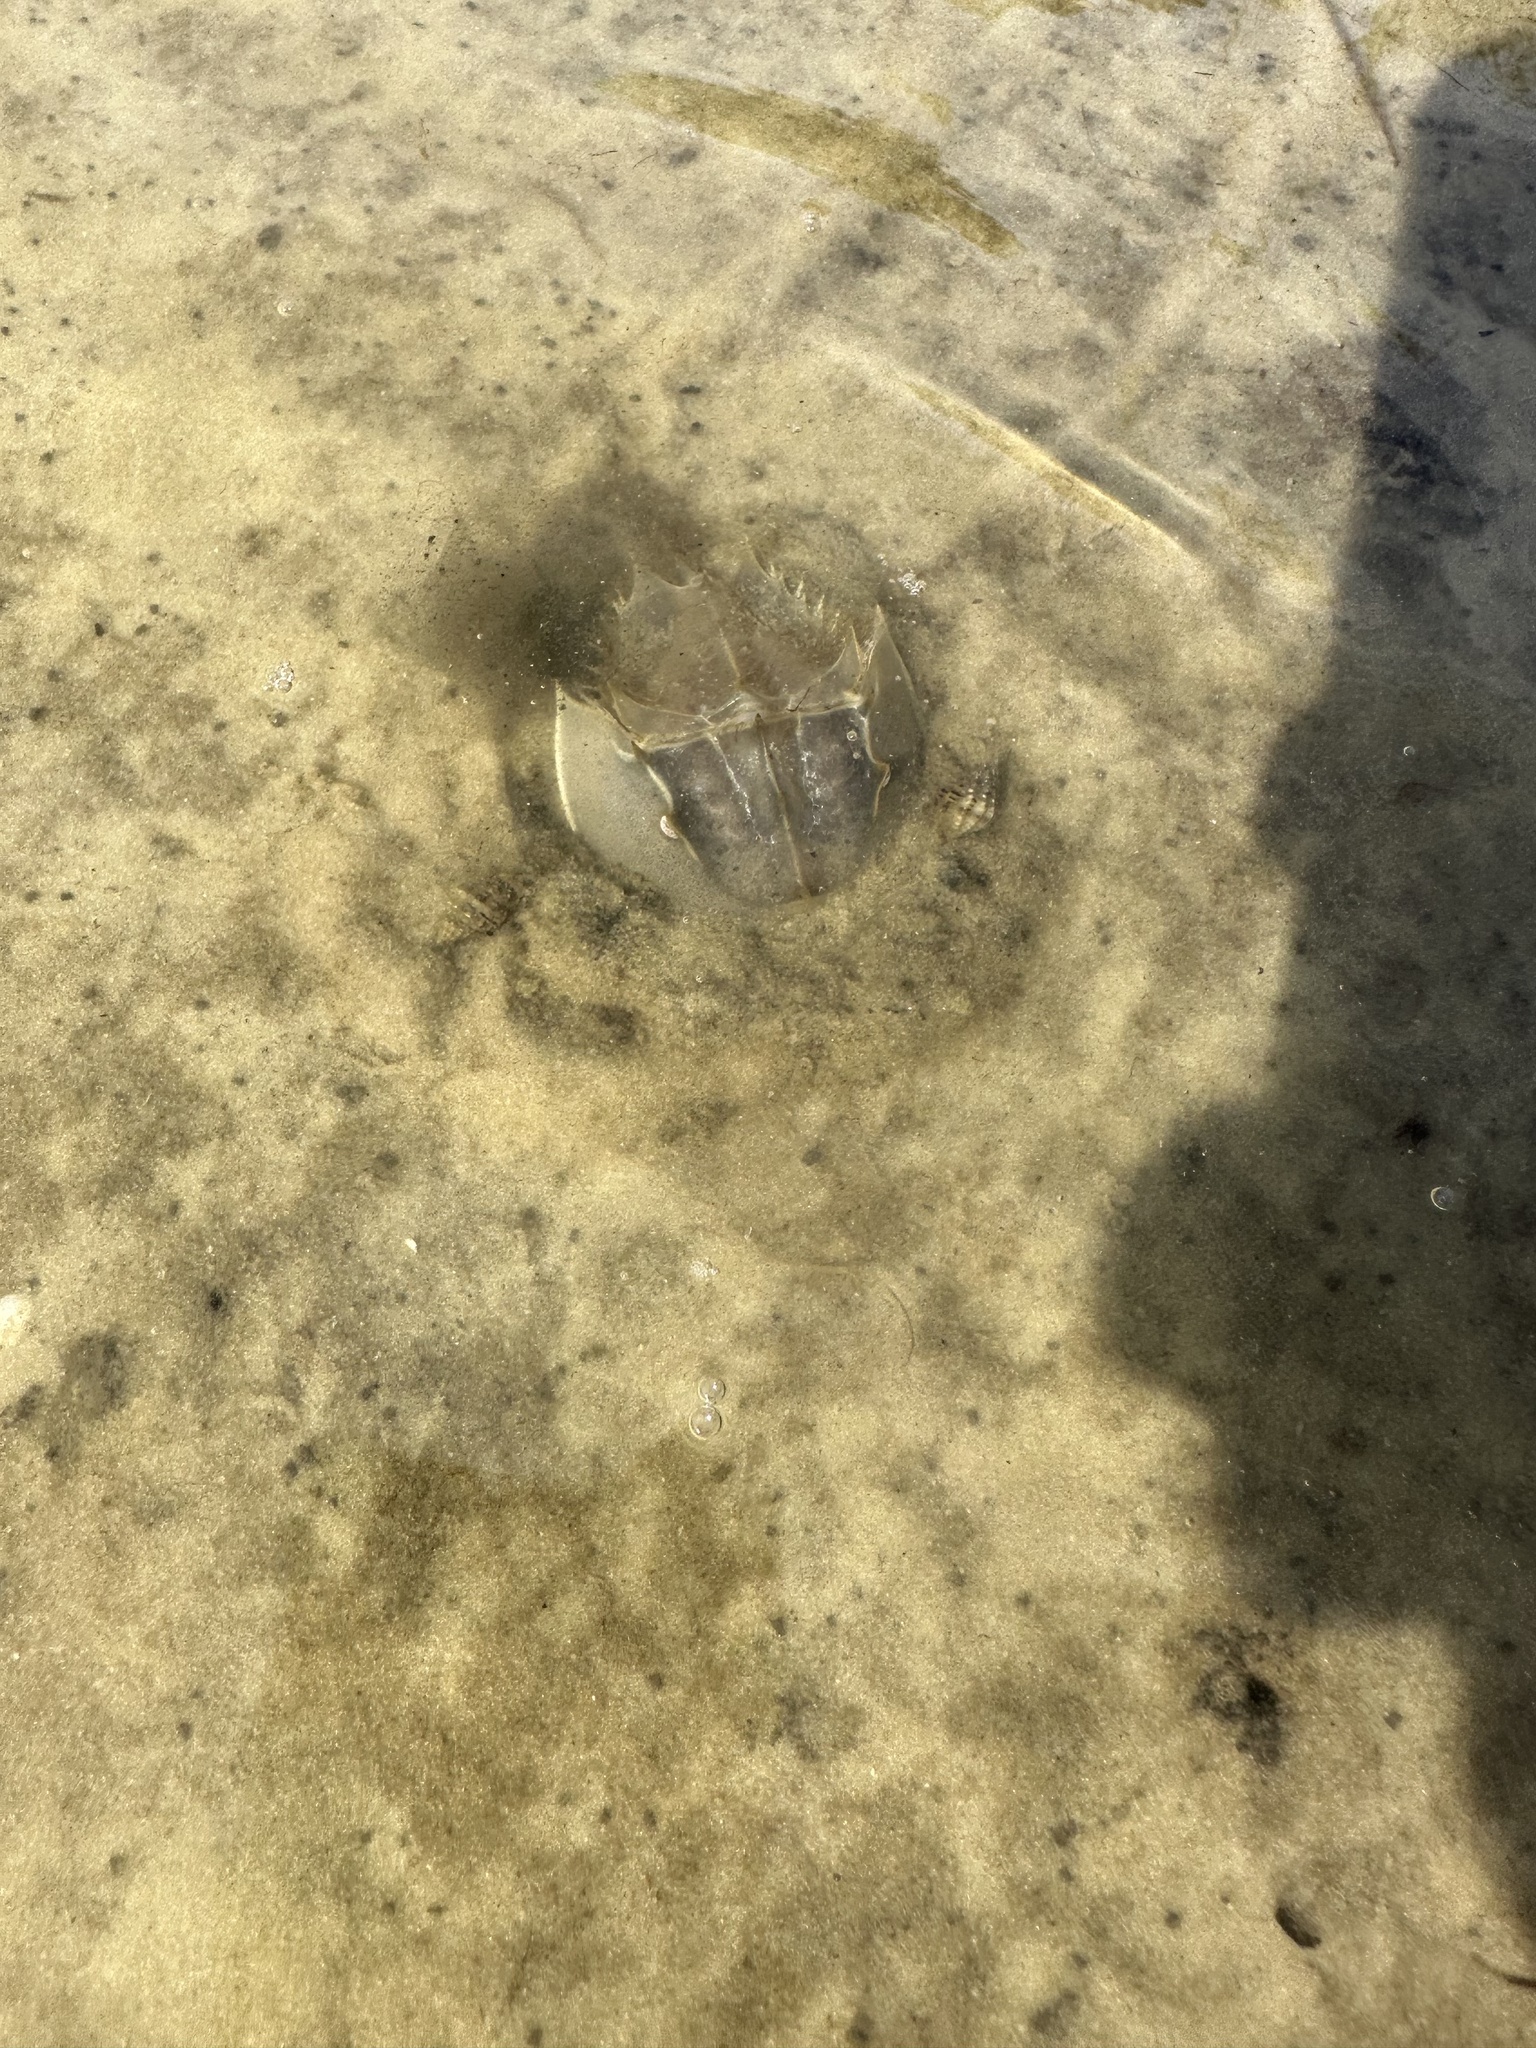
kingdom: Animalia
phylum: Arthropoda
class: Merostomata
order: Xiphosurida
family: Limulidae
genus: Limulus
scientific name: Limulus polyphemus
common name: Horseshoe crab
